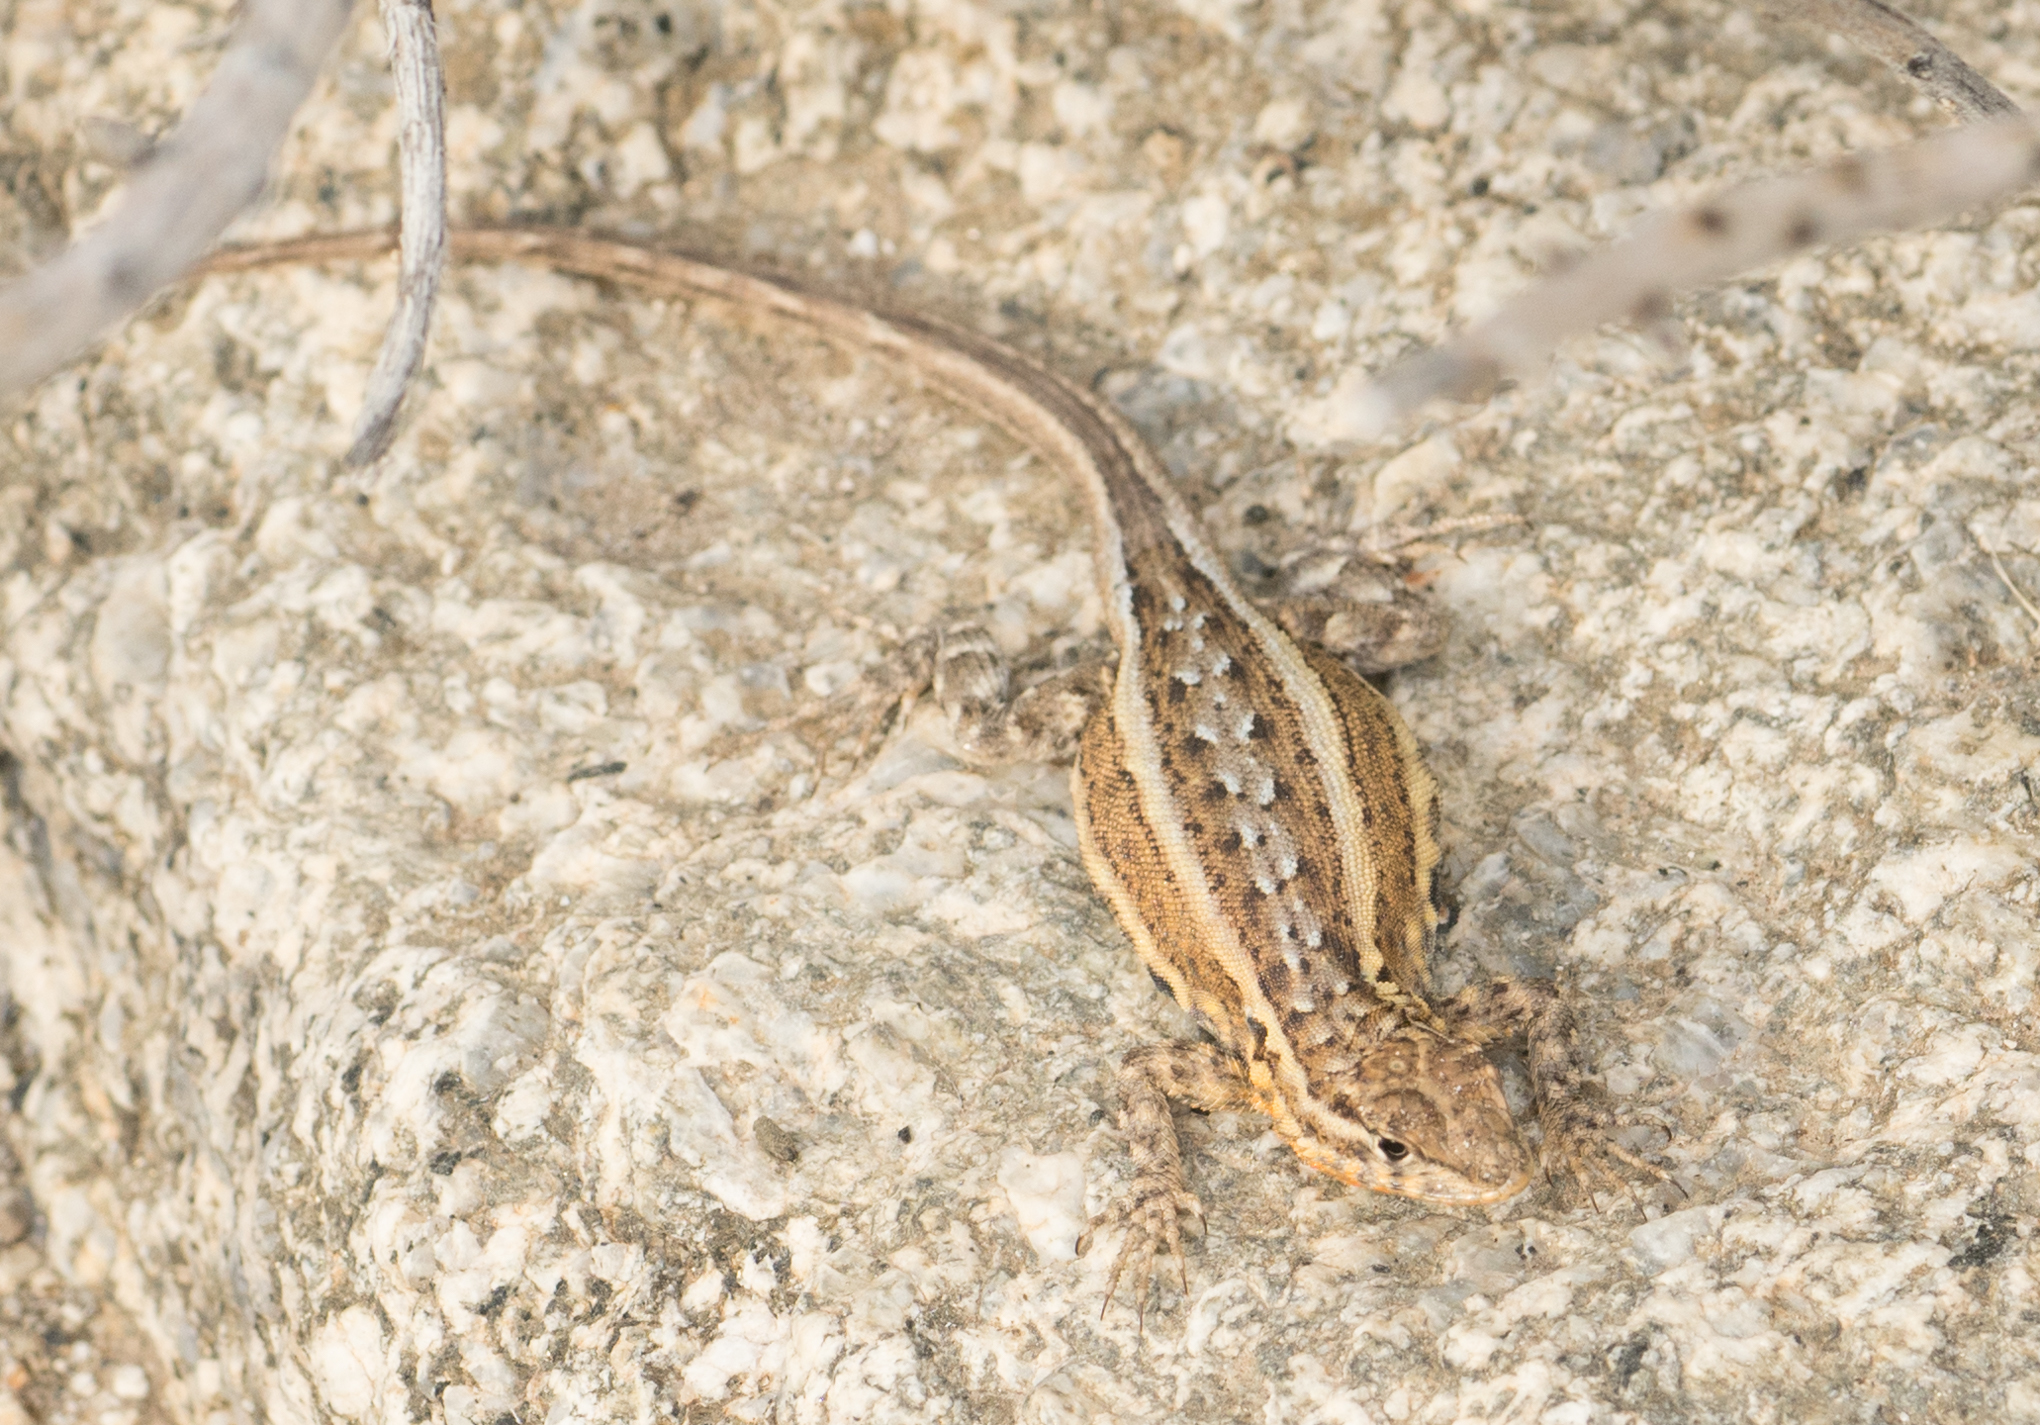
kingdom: Animalia
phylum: Chordata
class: Squamata
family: Phrynosomatidae
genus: Uta
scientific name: Uta stansburiana
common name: Side-blotched lizard
